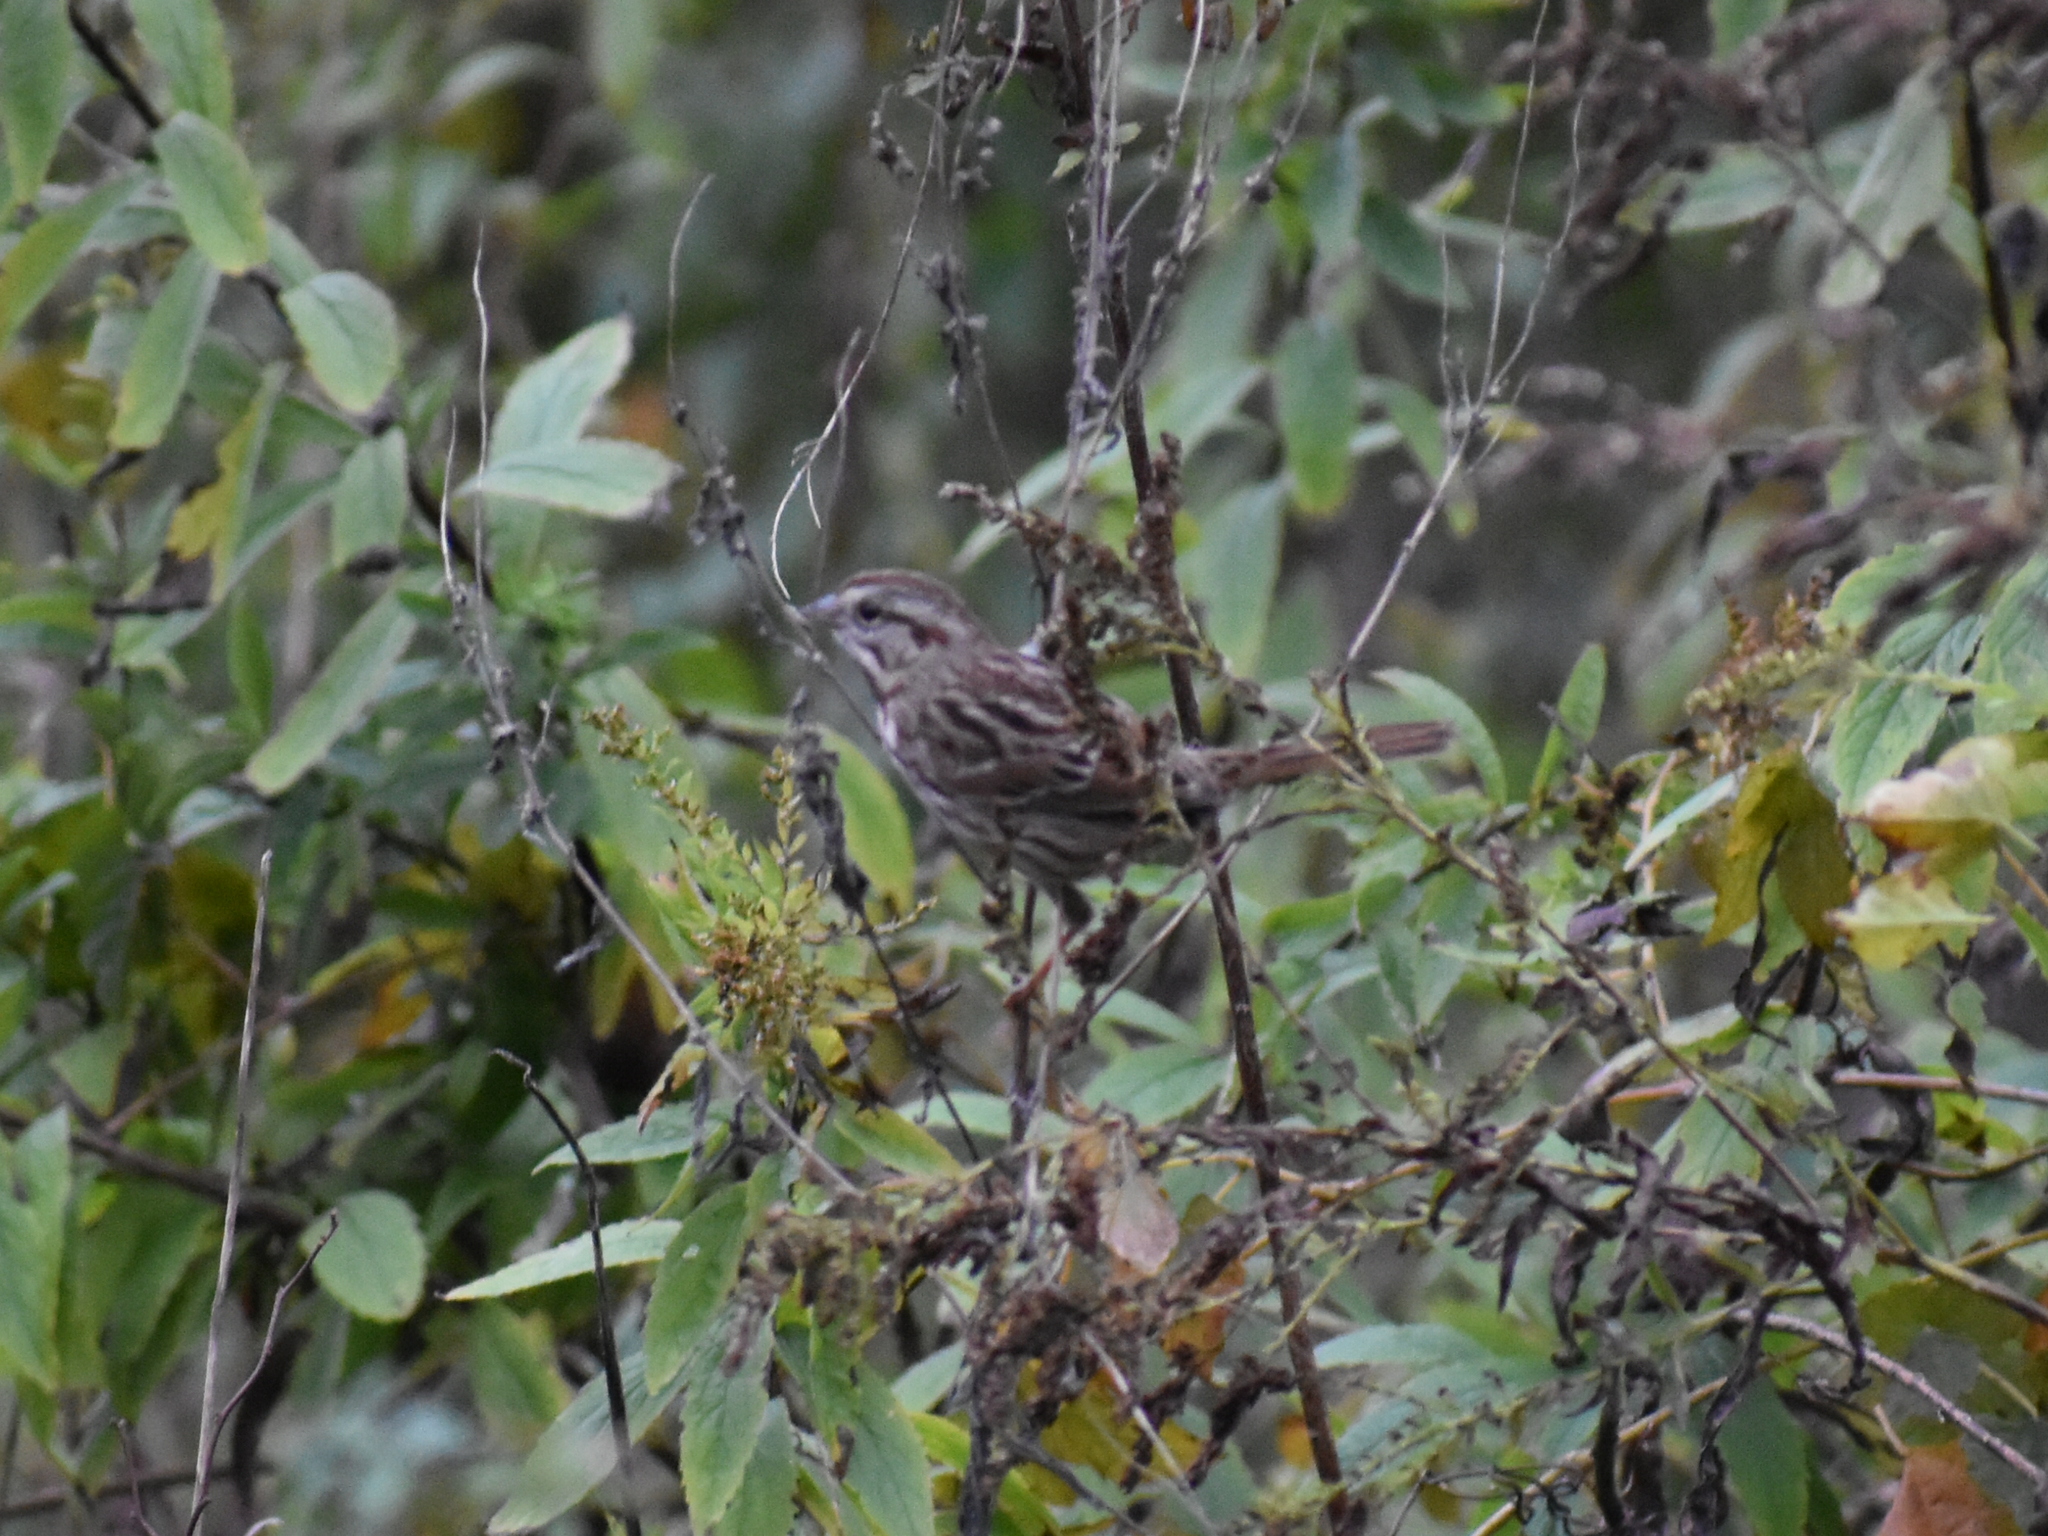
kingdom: Animalia
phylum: Chordata
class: Aves
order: Passeriformes
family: Passerellidae
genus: Melospiza
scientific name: Melospiza melodia
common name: Song sparrow
